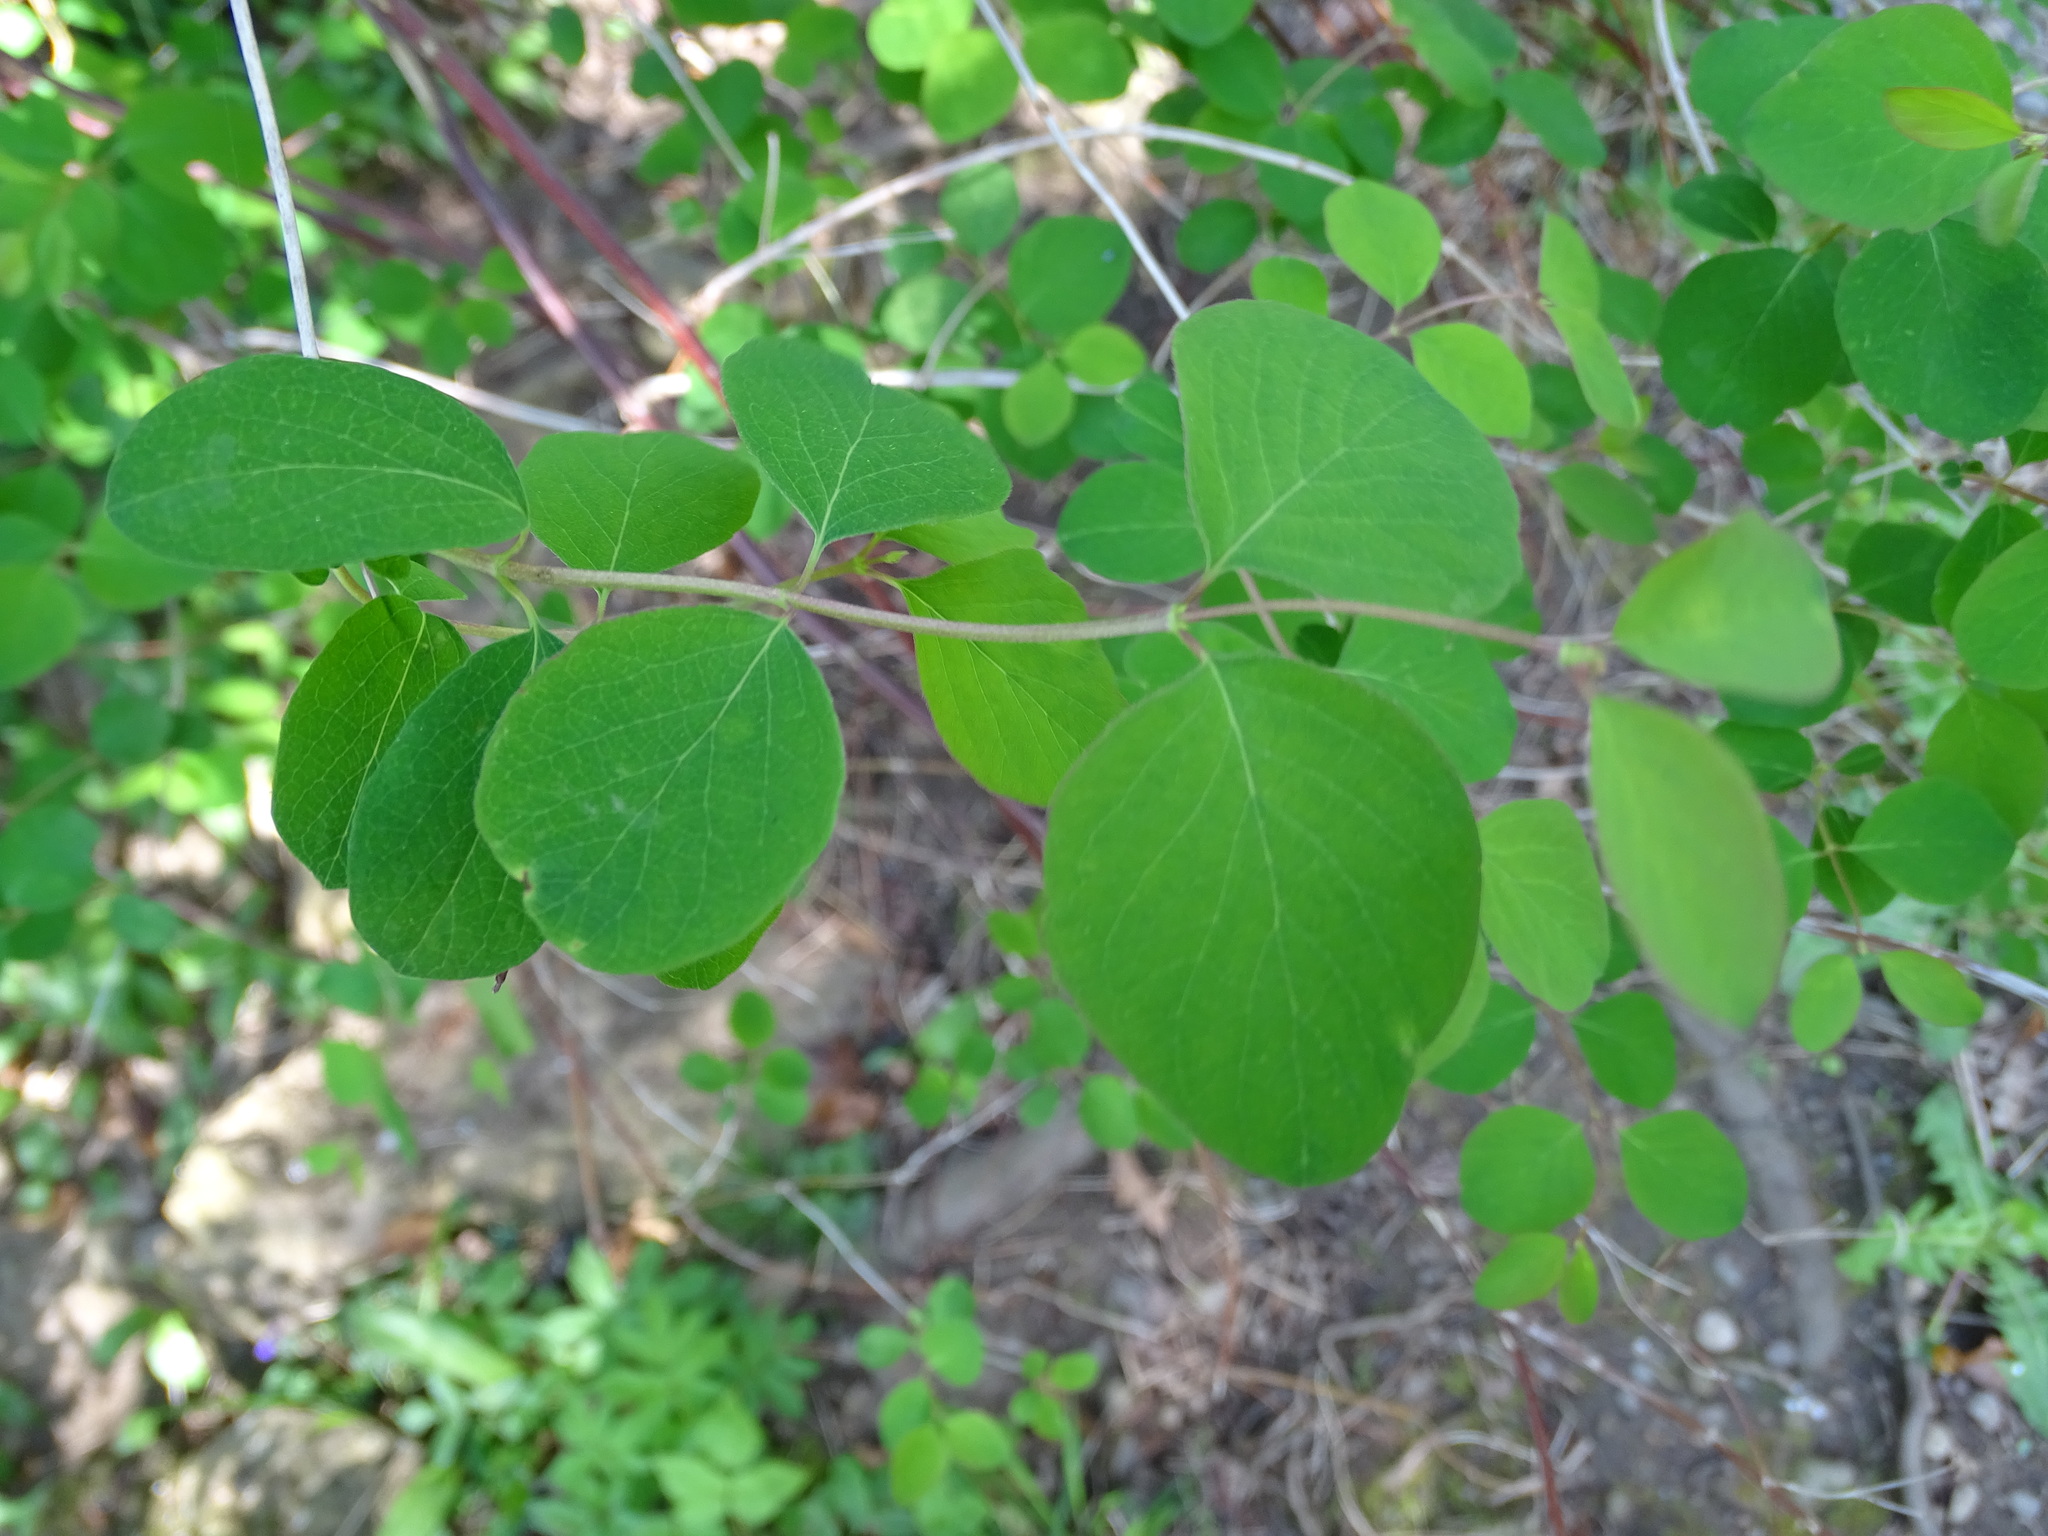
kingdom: Plantae
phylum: Tracheophyta
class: Magnoliopsida
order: Dipsacales
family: Caprifoliaceae
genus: Symphoricarpos
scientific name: Symphoricarpos albus
